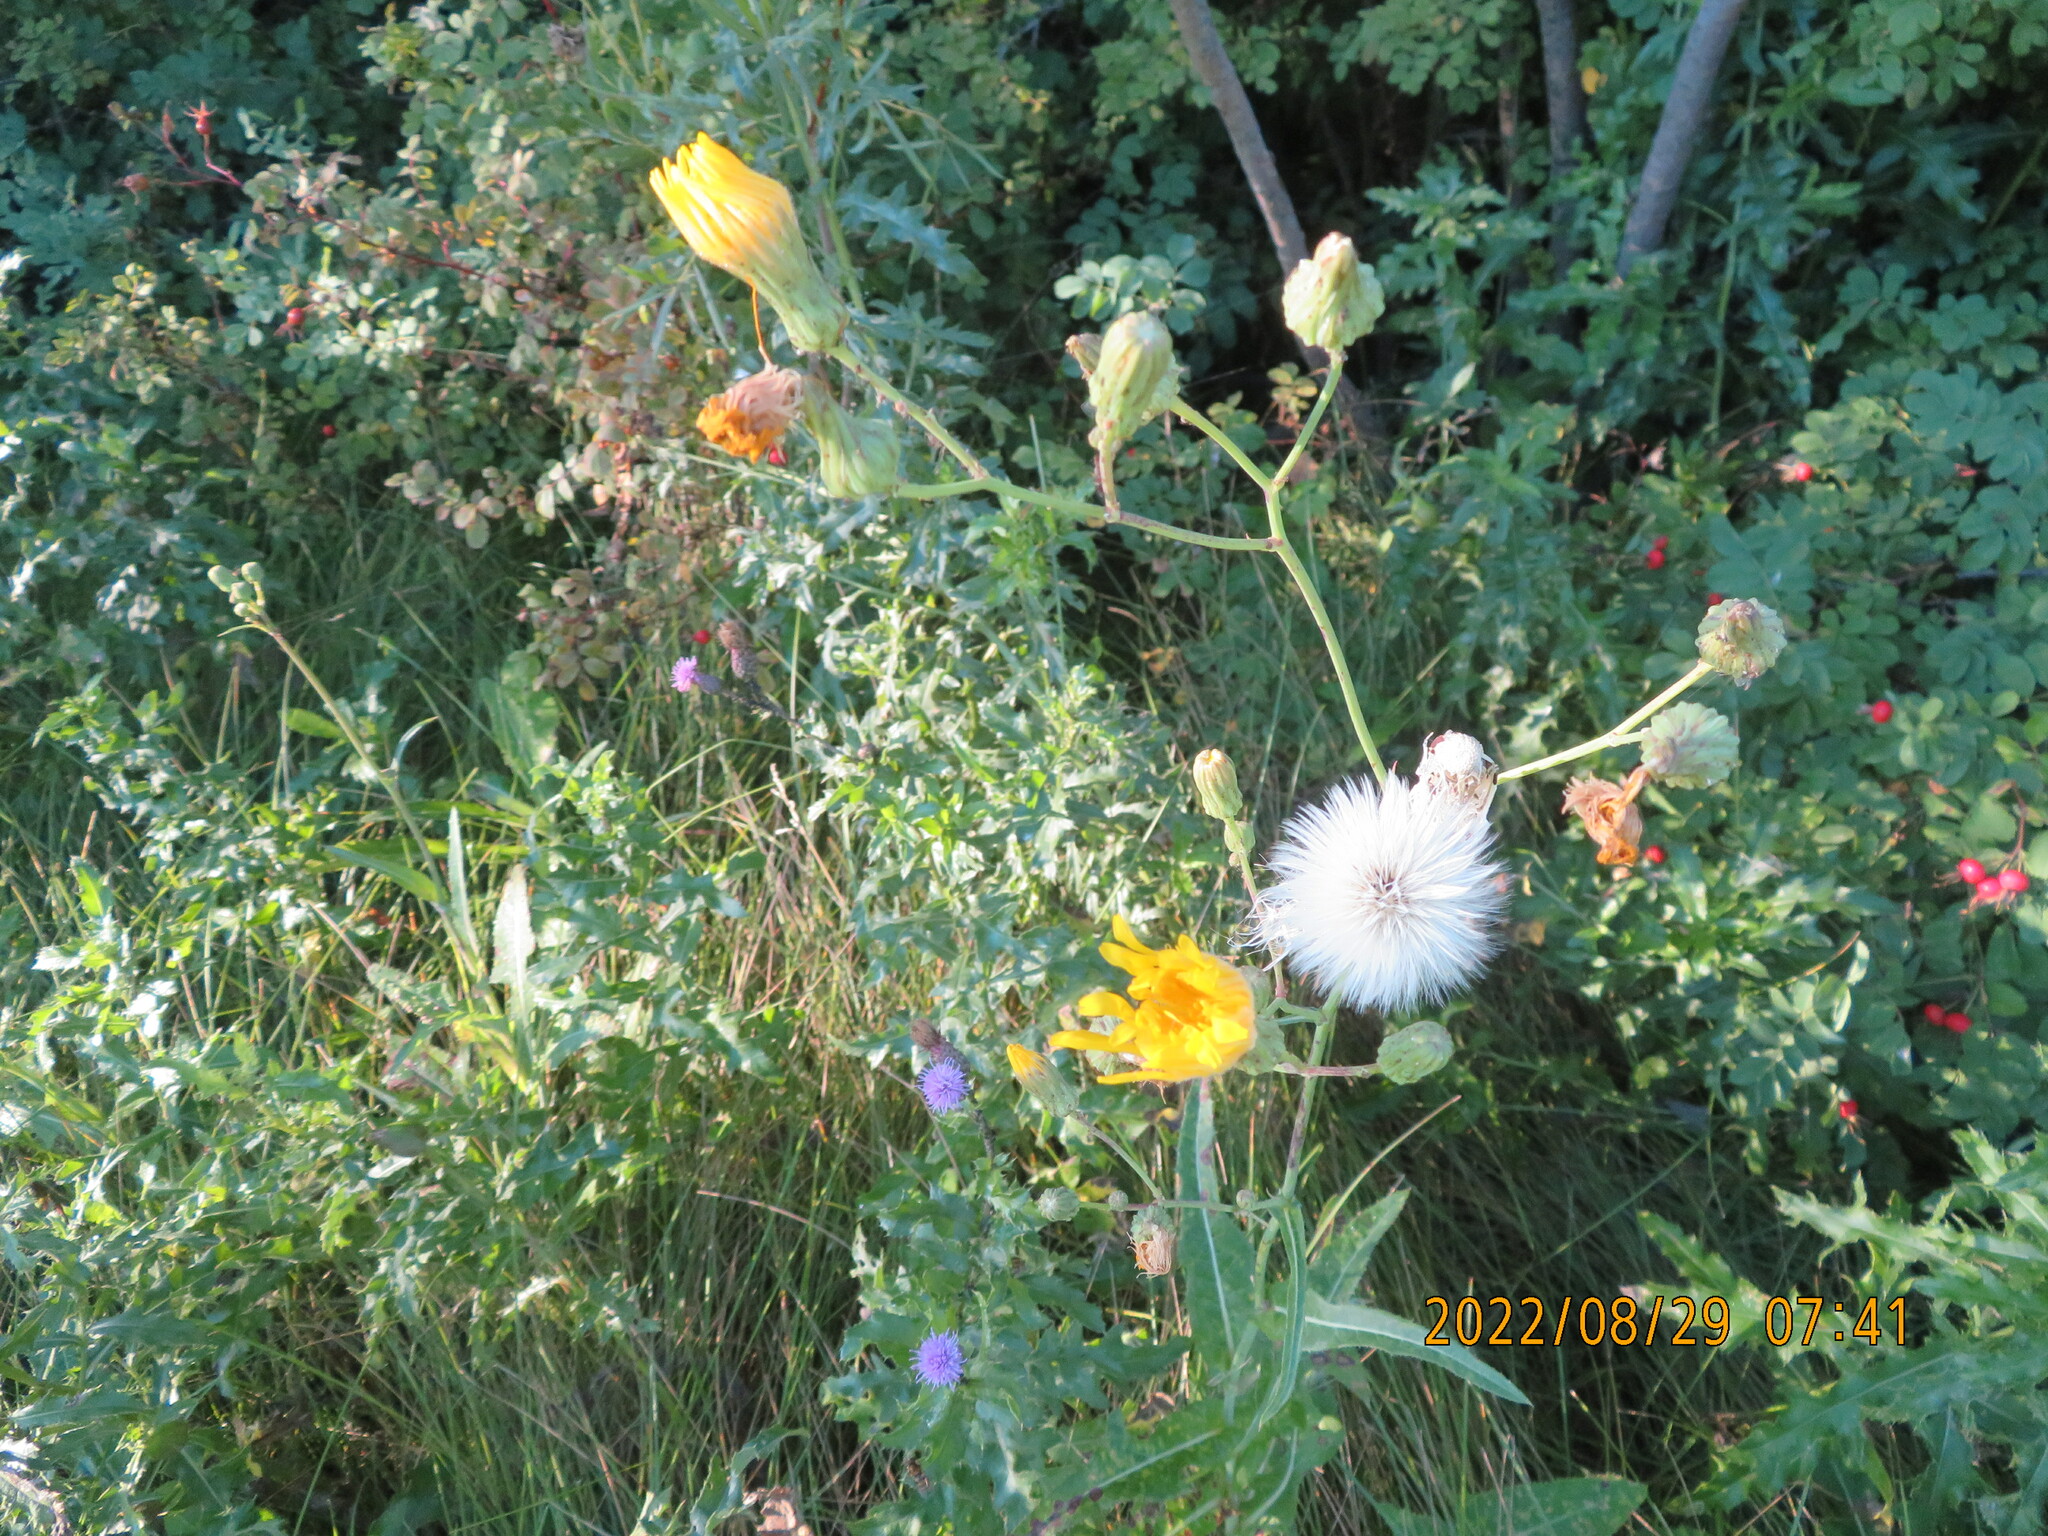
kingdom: Plantae
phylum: Tracheophyta
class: Magnoliopsida
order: Asterales
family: Asteraceae
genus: Sonchus
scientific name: Sonchus arvensis
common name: Perennial sow-thistle
